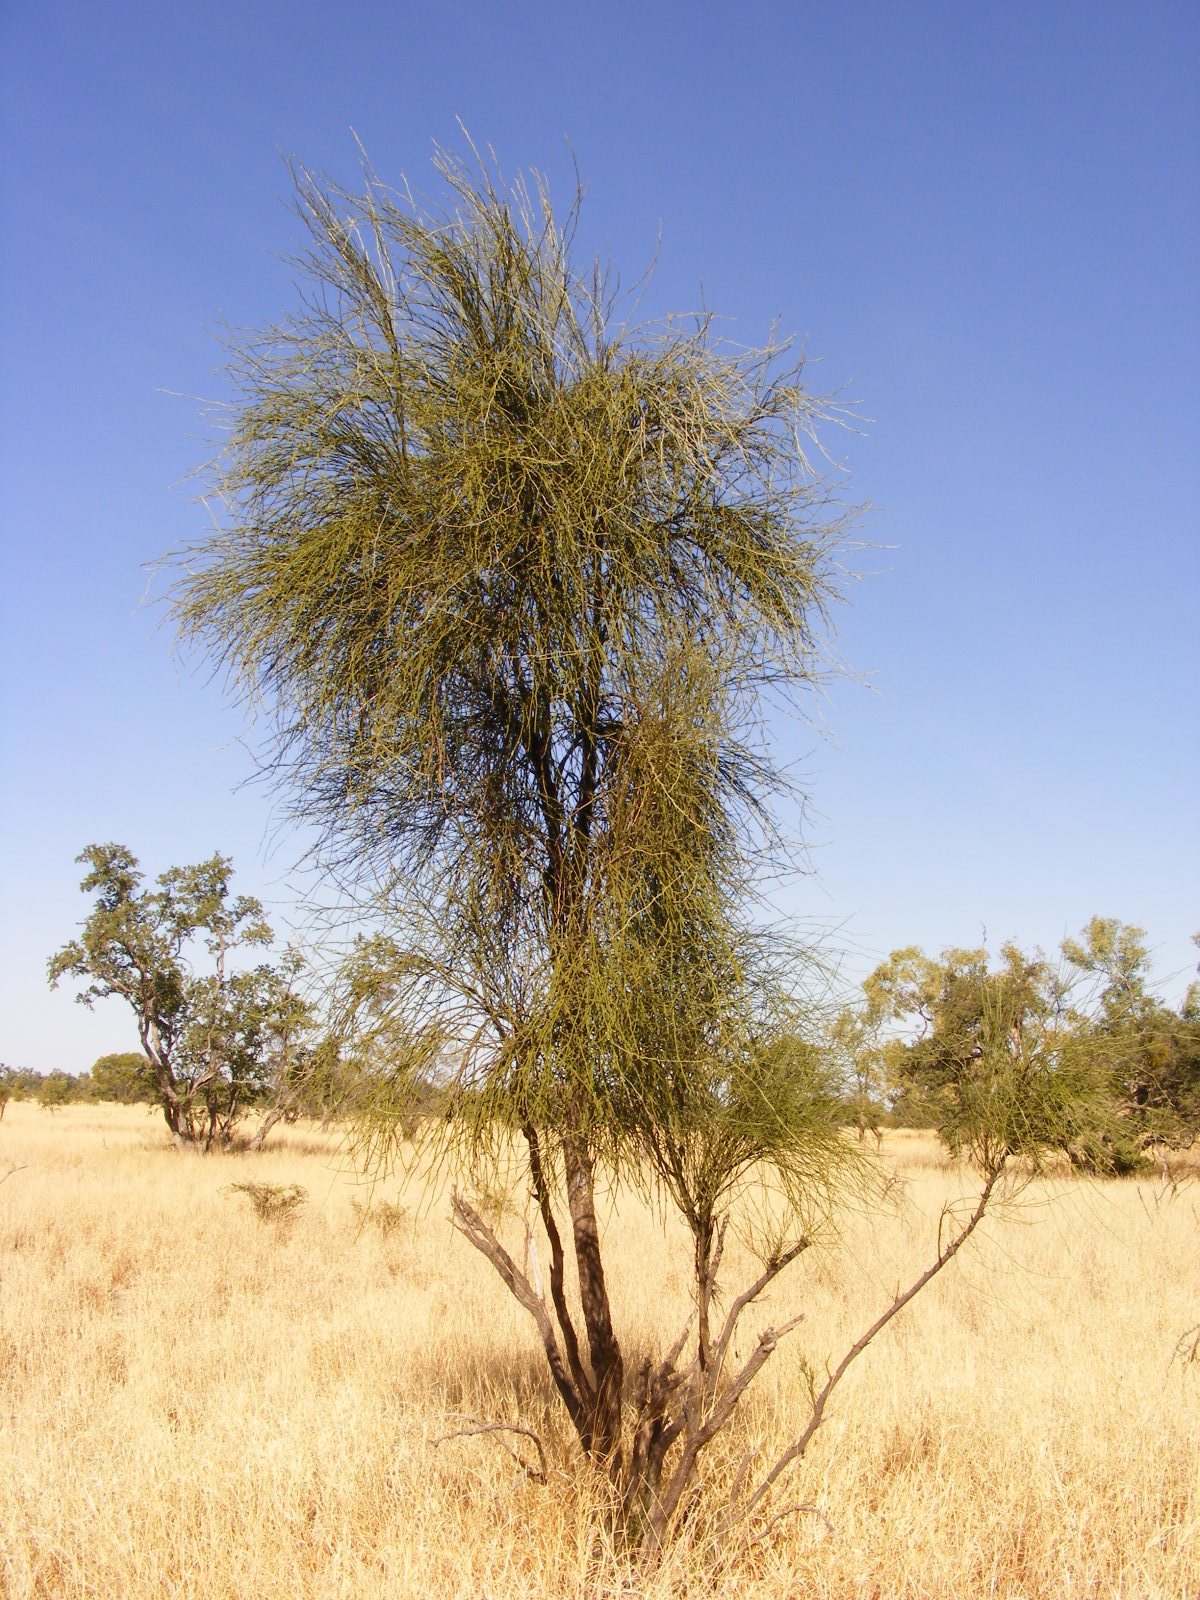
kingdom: Plantae
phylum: Tracheophyta
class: Magnoliopsida
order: Brassicales
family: Capparaceae
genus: Apophyllum
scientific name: Apophyllum anomalum
